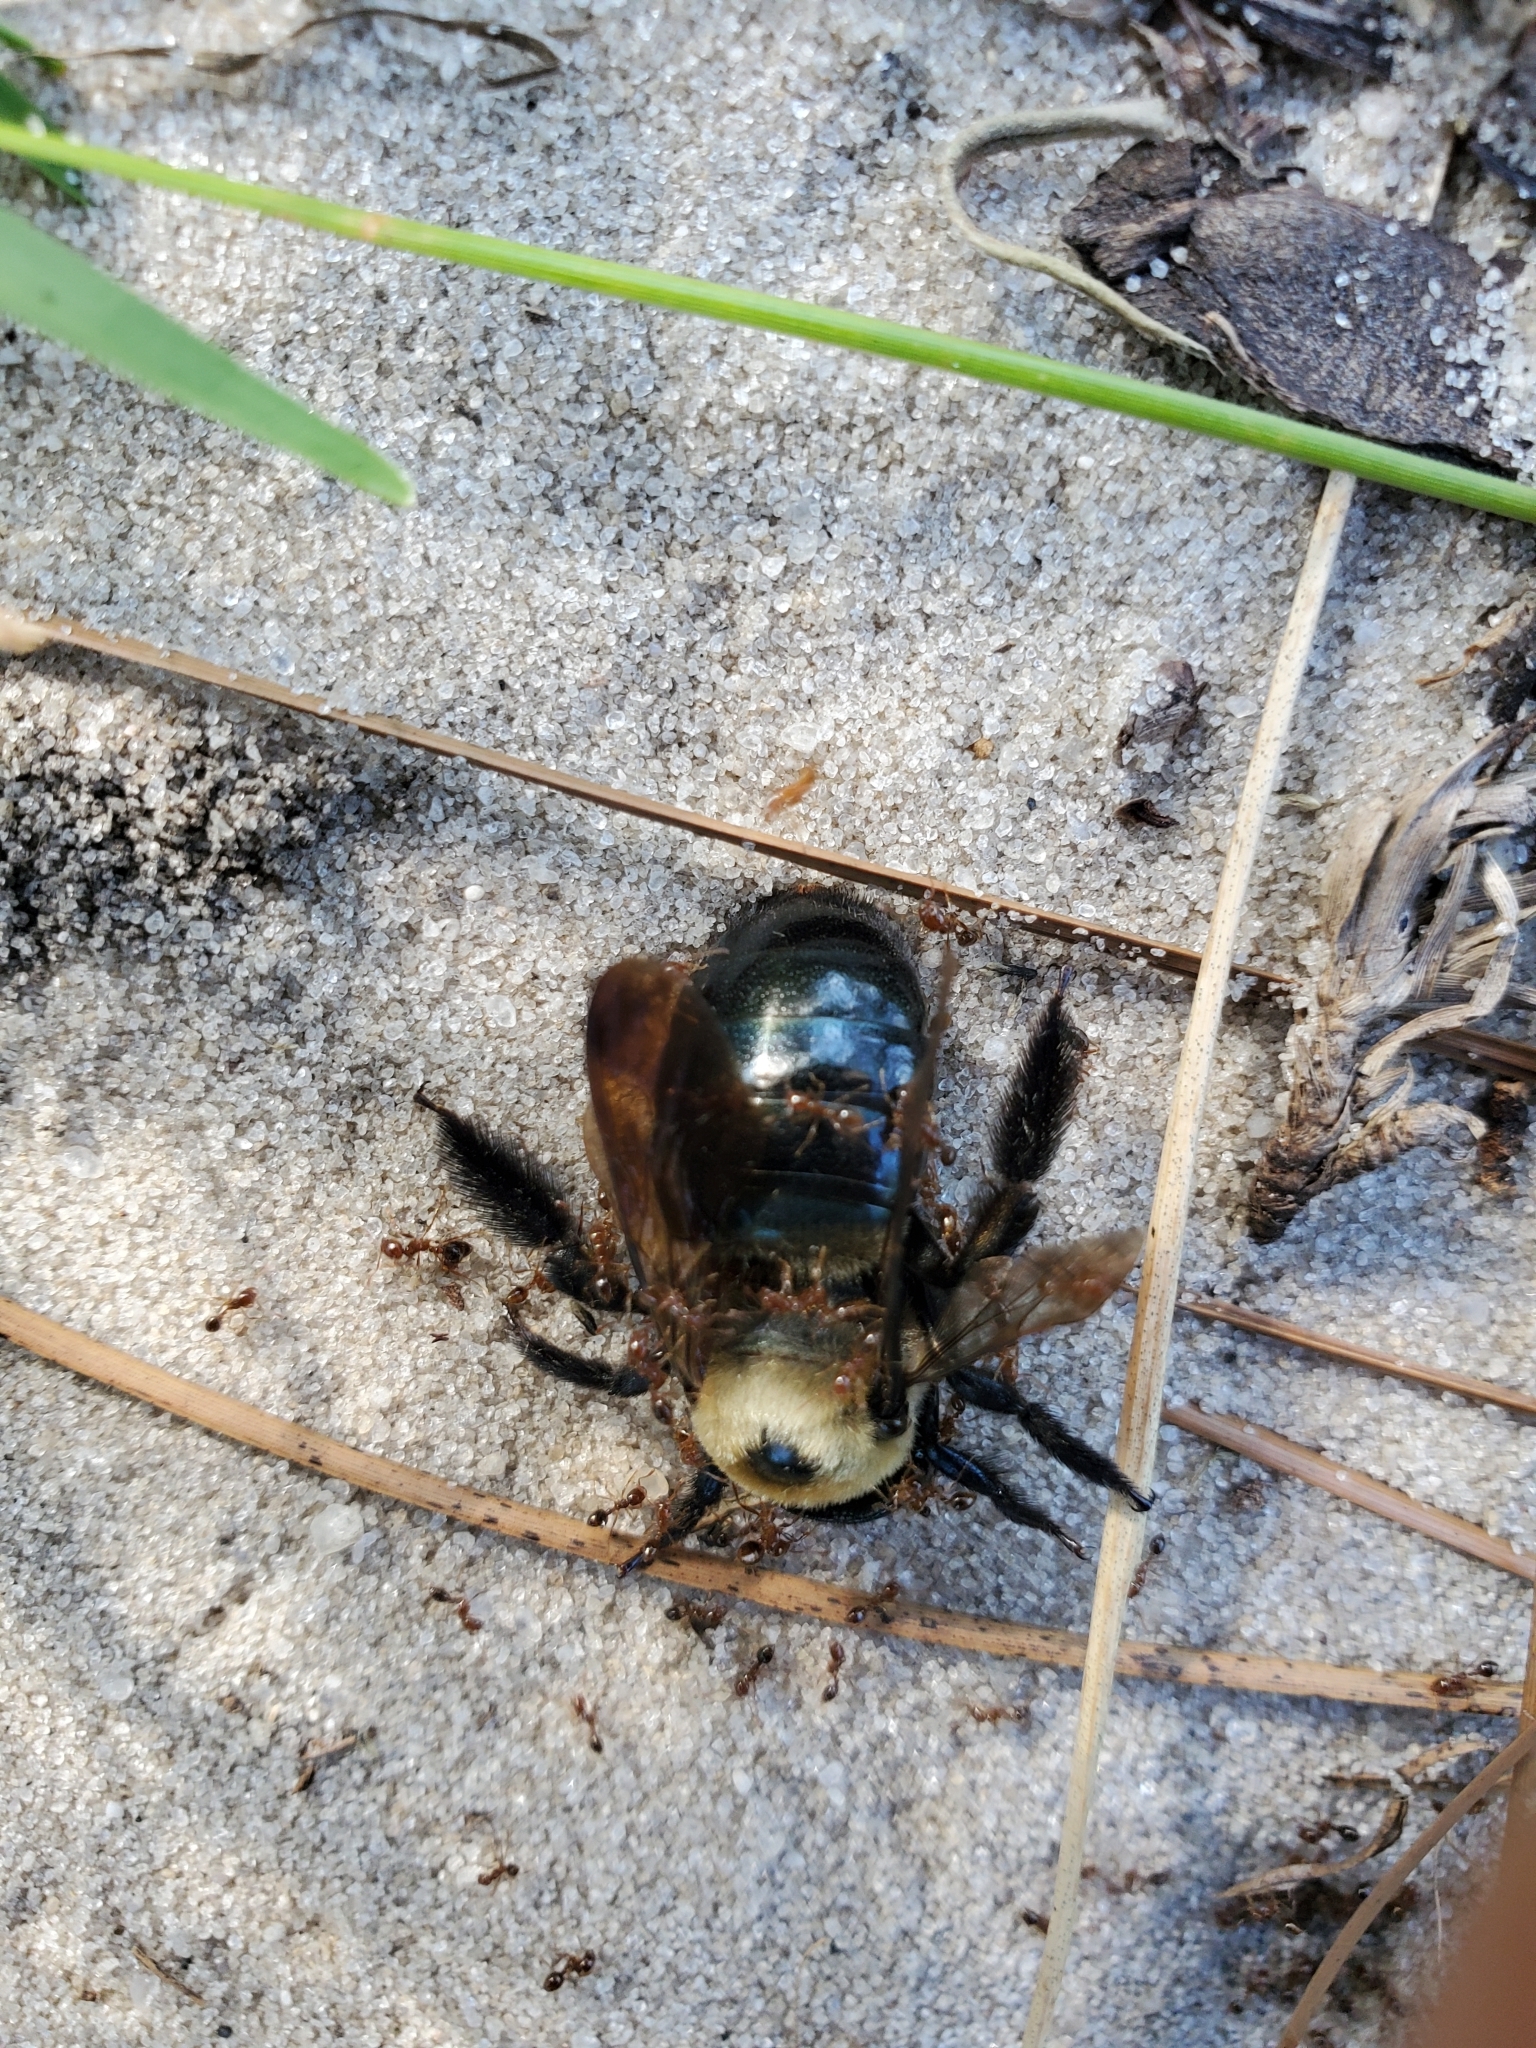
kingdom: Animalia
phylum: Arthropoda
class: Insecta
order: Hymenoptera
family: Apidae
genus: Xylocopa
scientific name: Xylocopa virginica
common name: Carpenter bee
